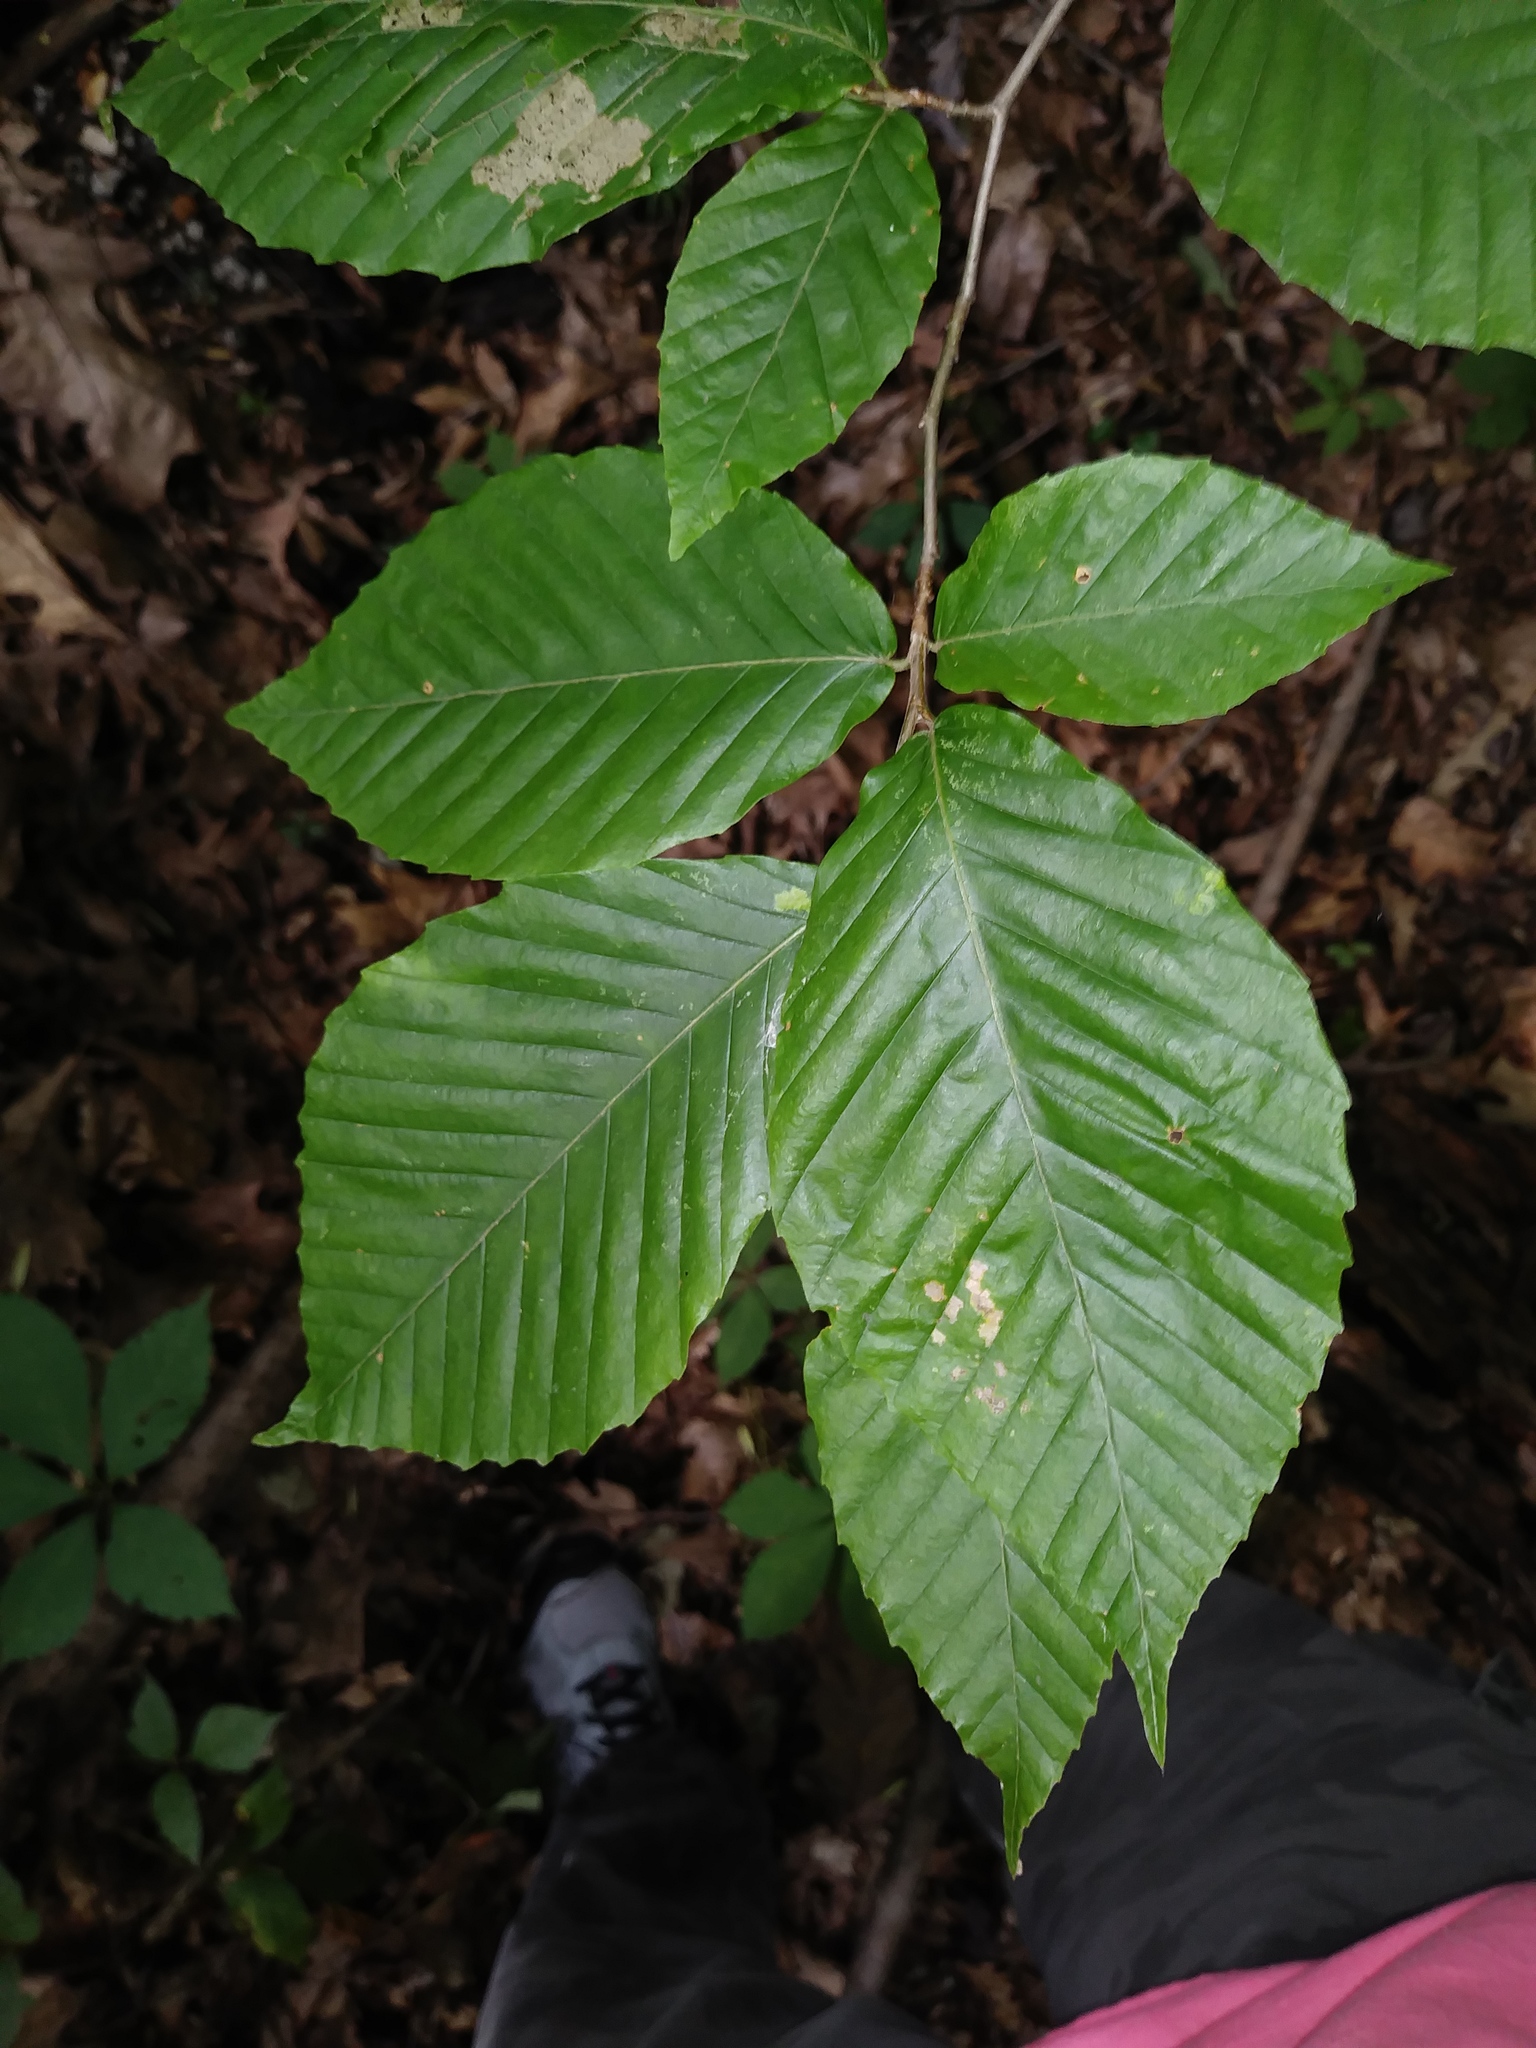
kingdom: Plantae
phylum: Tracheophyta
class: Magnoliopsida
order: Fagales
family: Fagaceae
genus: Fagus
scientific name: Fagus grandifolia
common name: American beech
